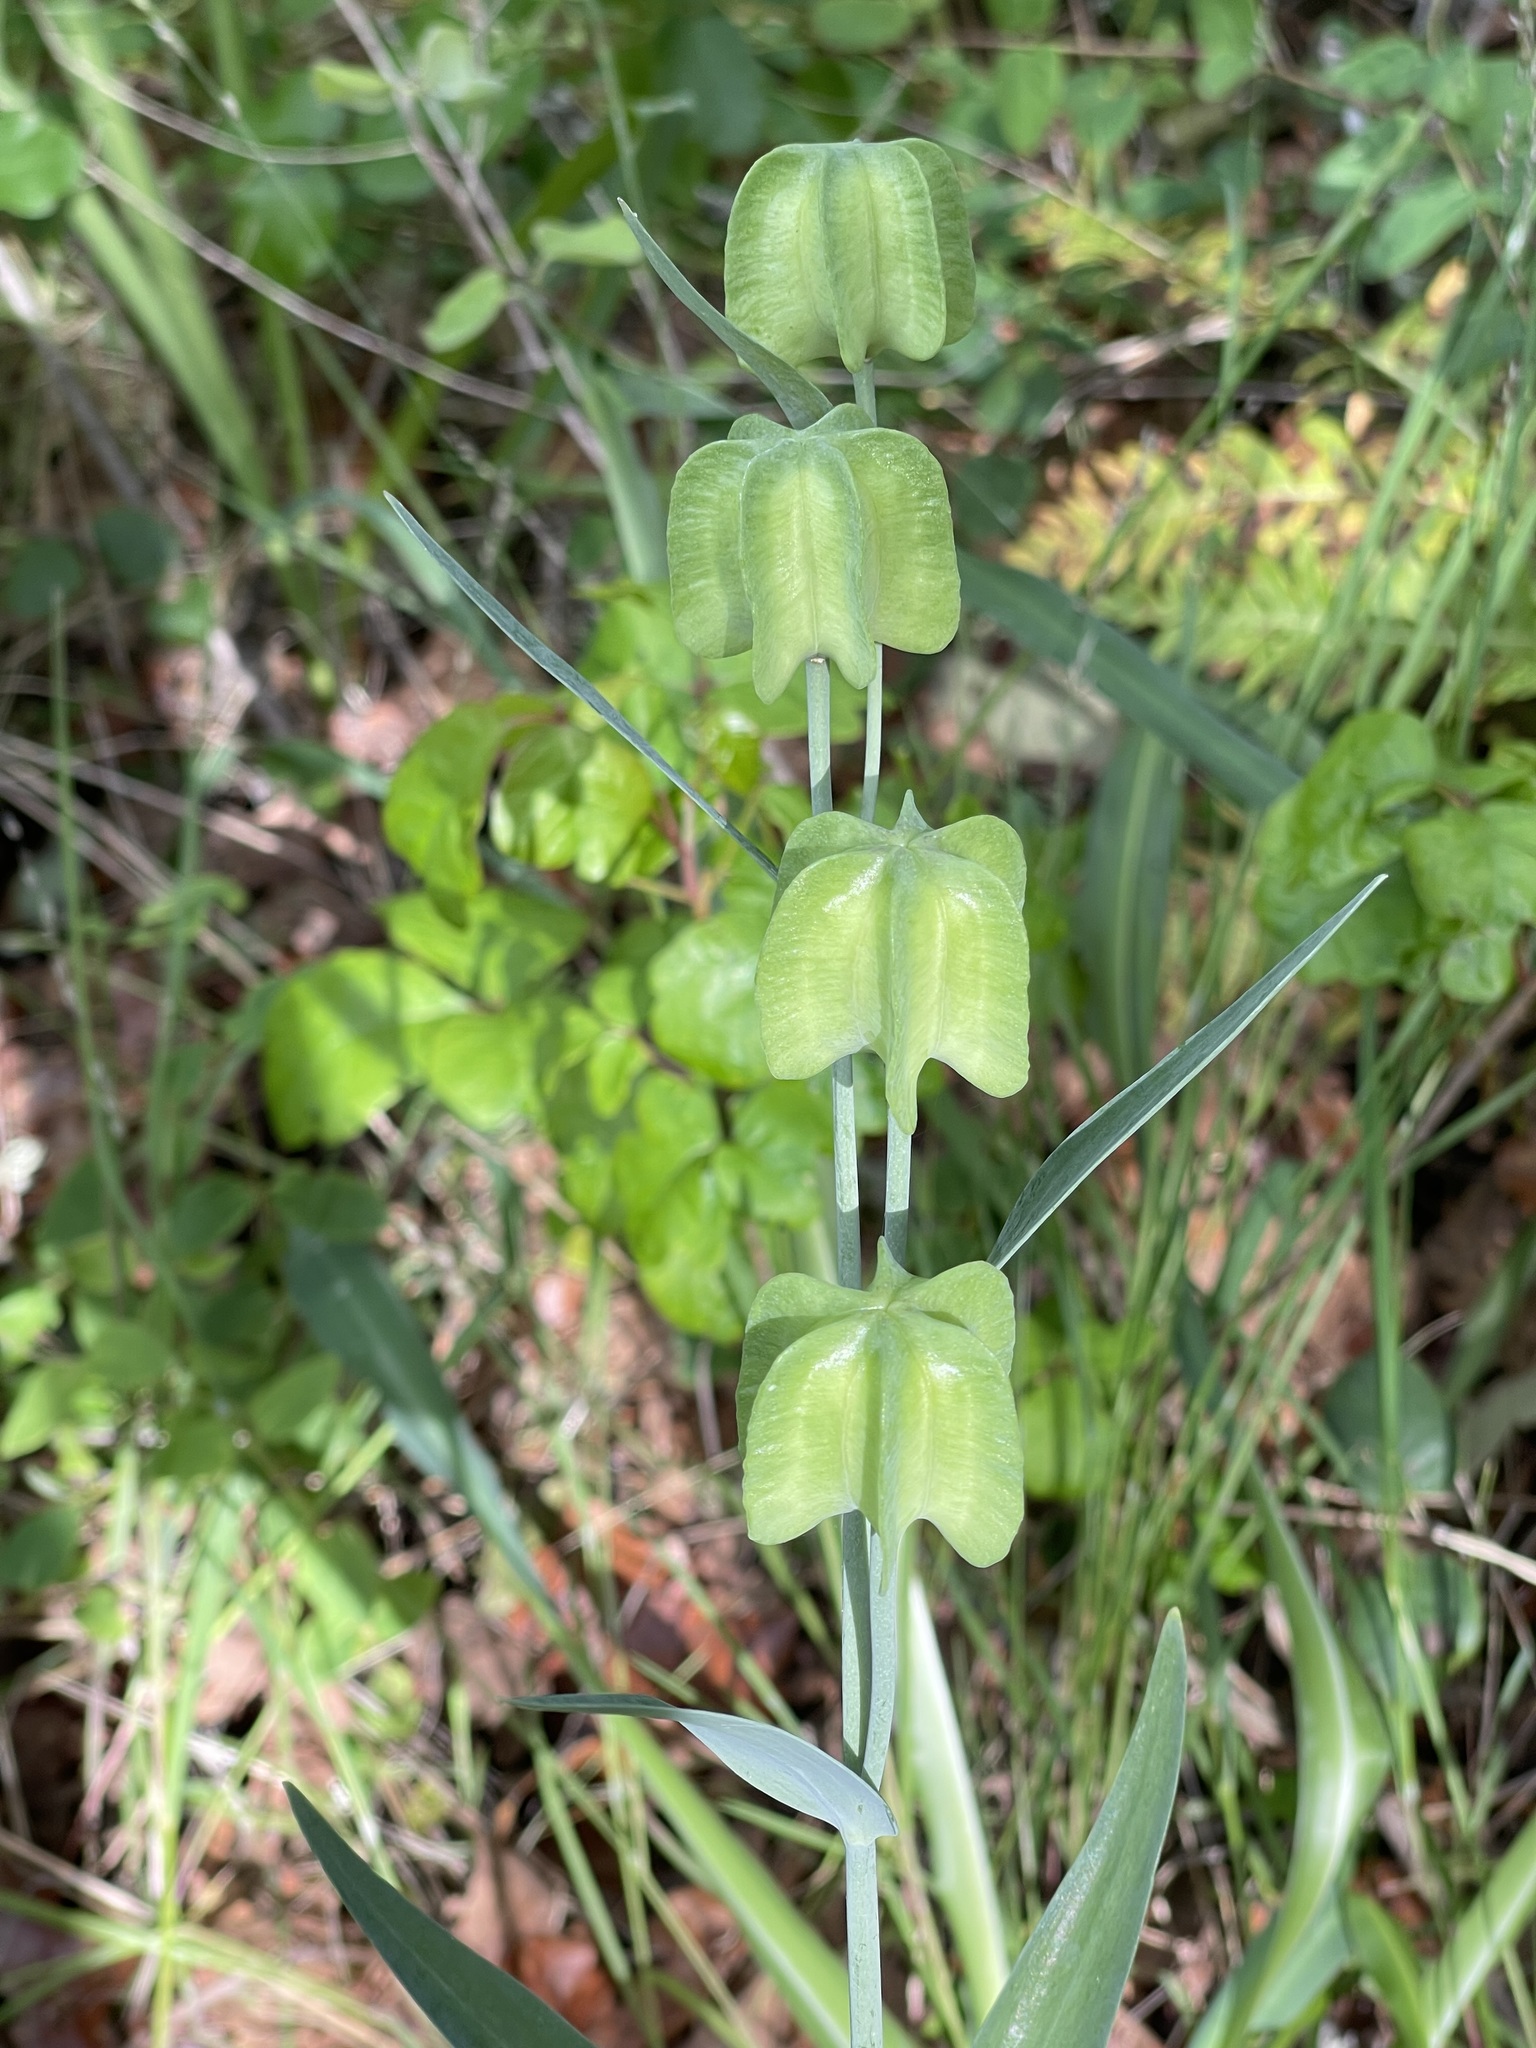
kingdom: Plantae
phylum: Tracheophyta
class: Liliopsida
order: Liliales
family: Liliaceae
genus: Fritillaria
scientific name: Fritillaria affinis
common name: Ojai fritillary
